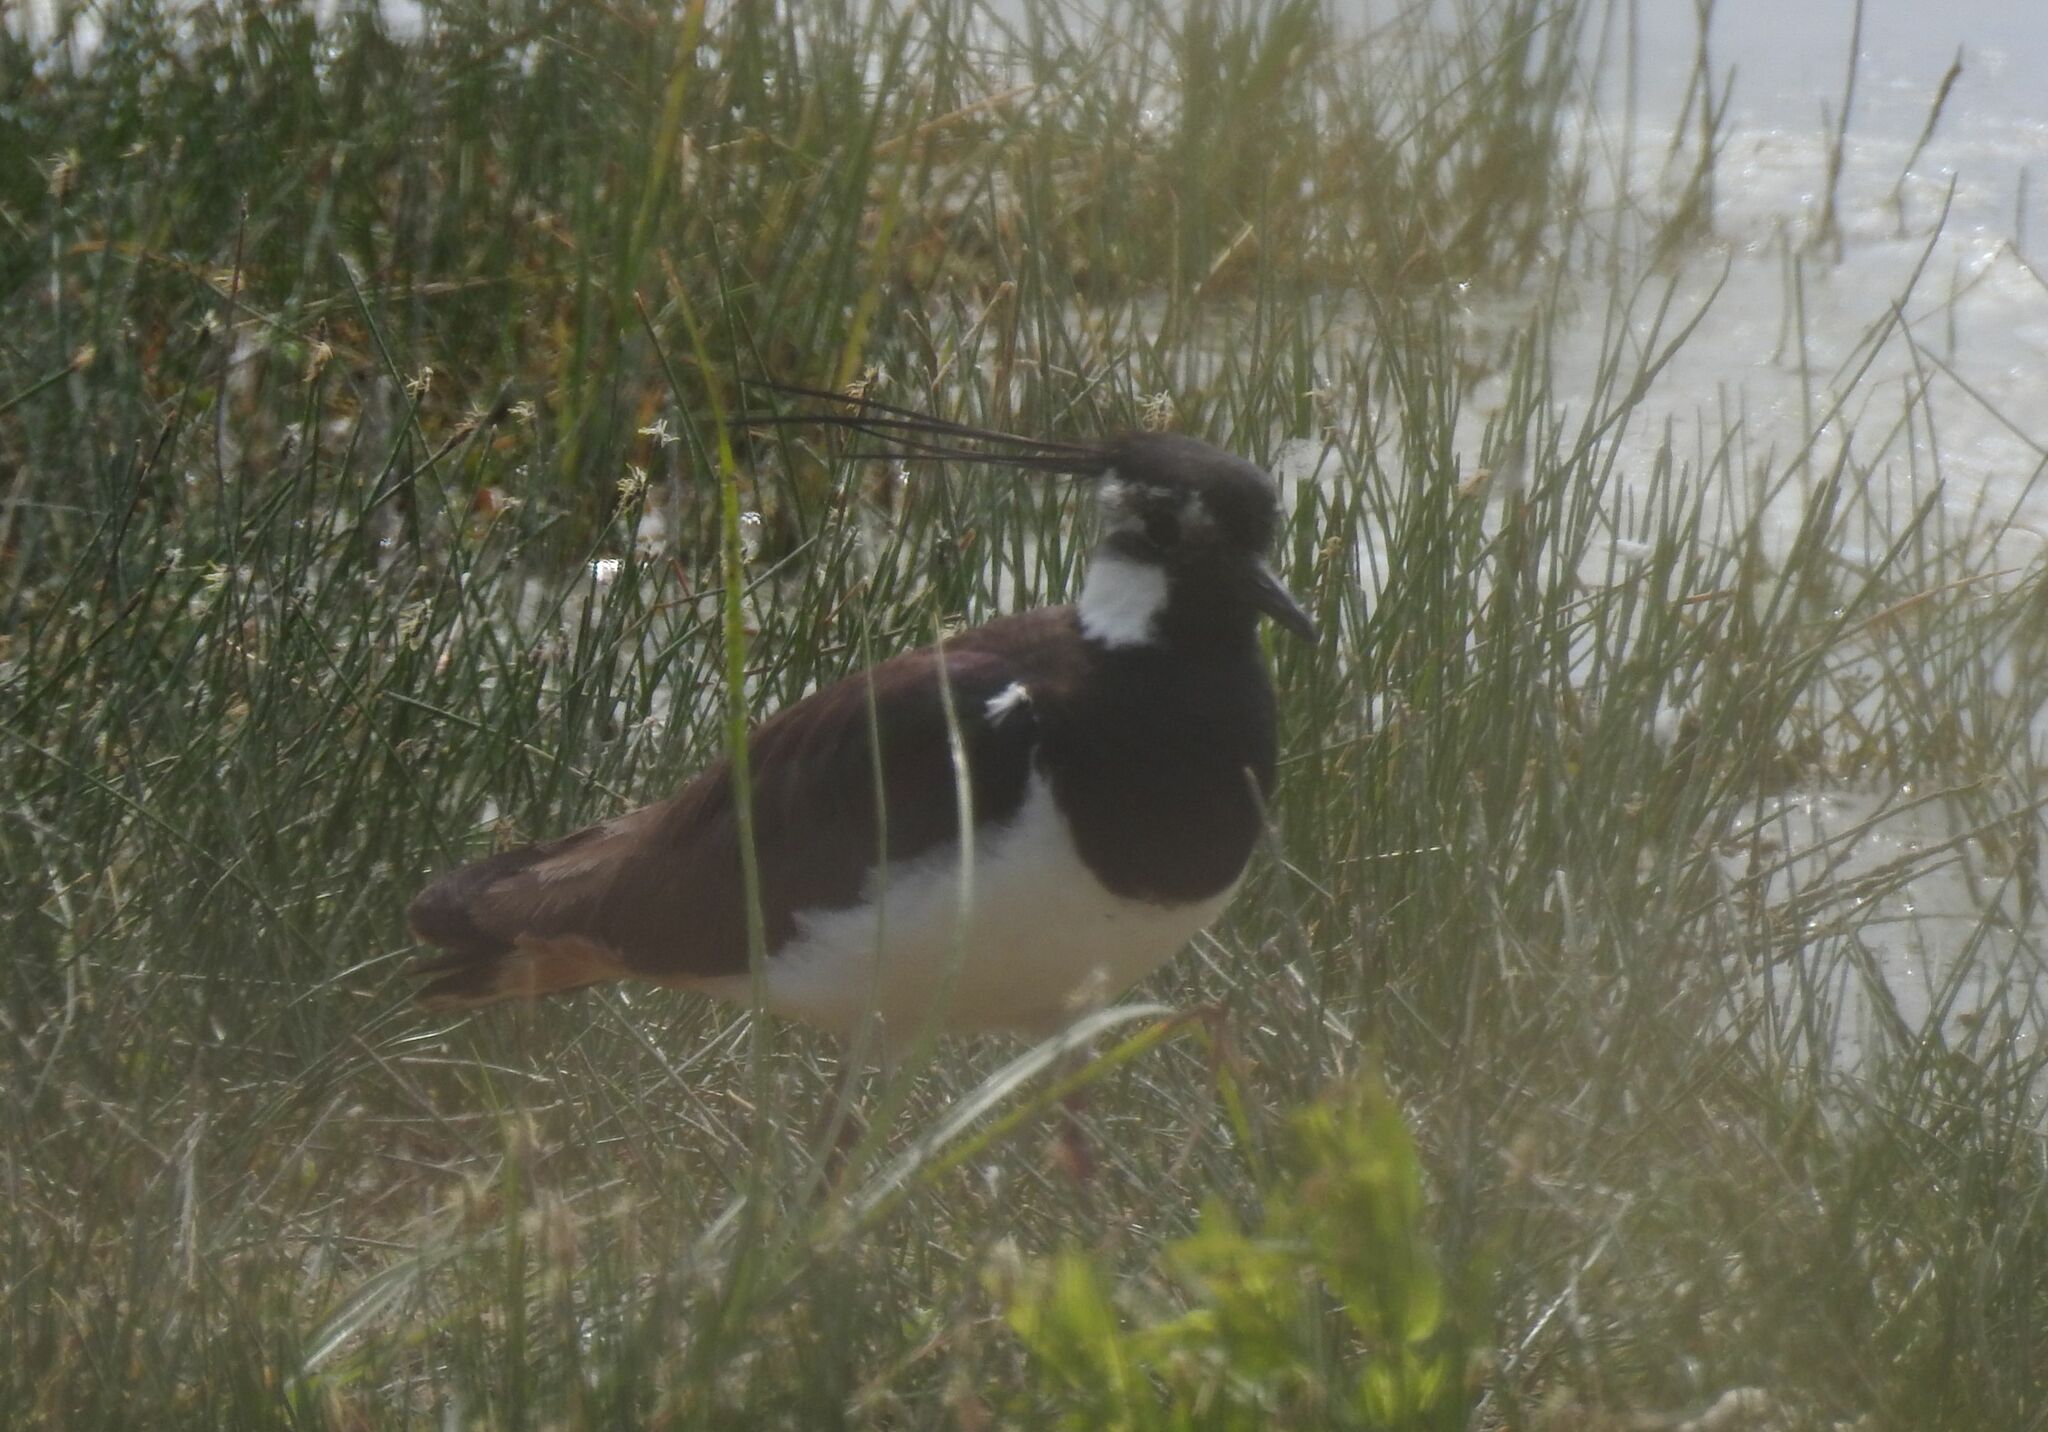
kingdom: Animalia
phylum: Chordata
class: Aves
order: Charadriiformes
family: Charadriidae
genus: Vanellus
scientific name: Vanellus vanellus
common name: Northern lapwing
